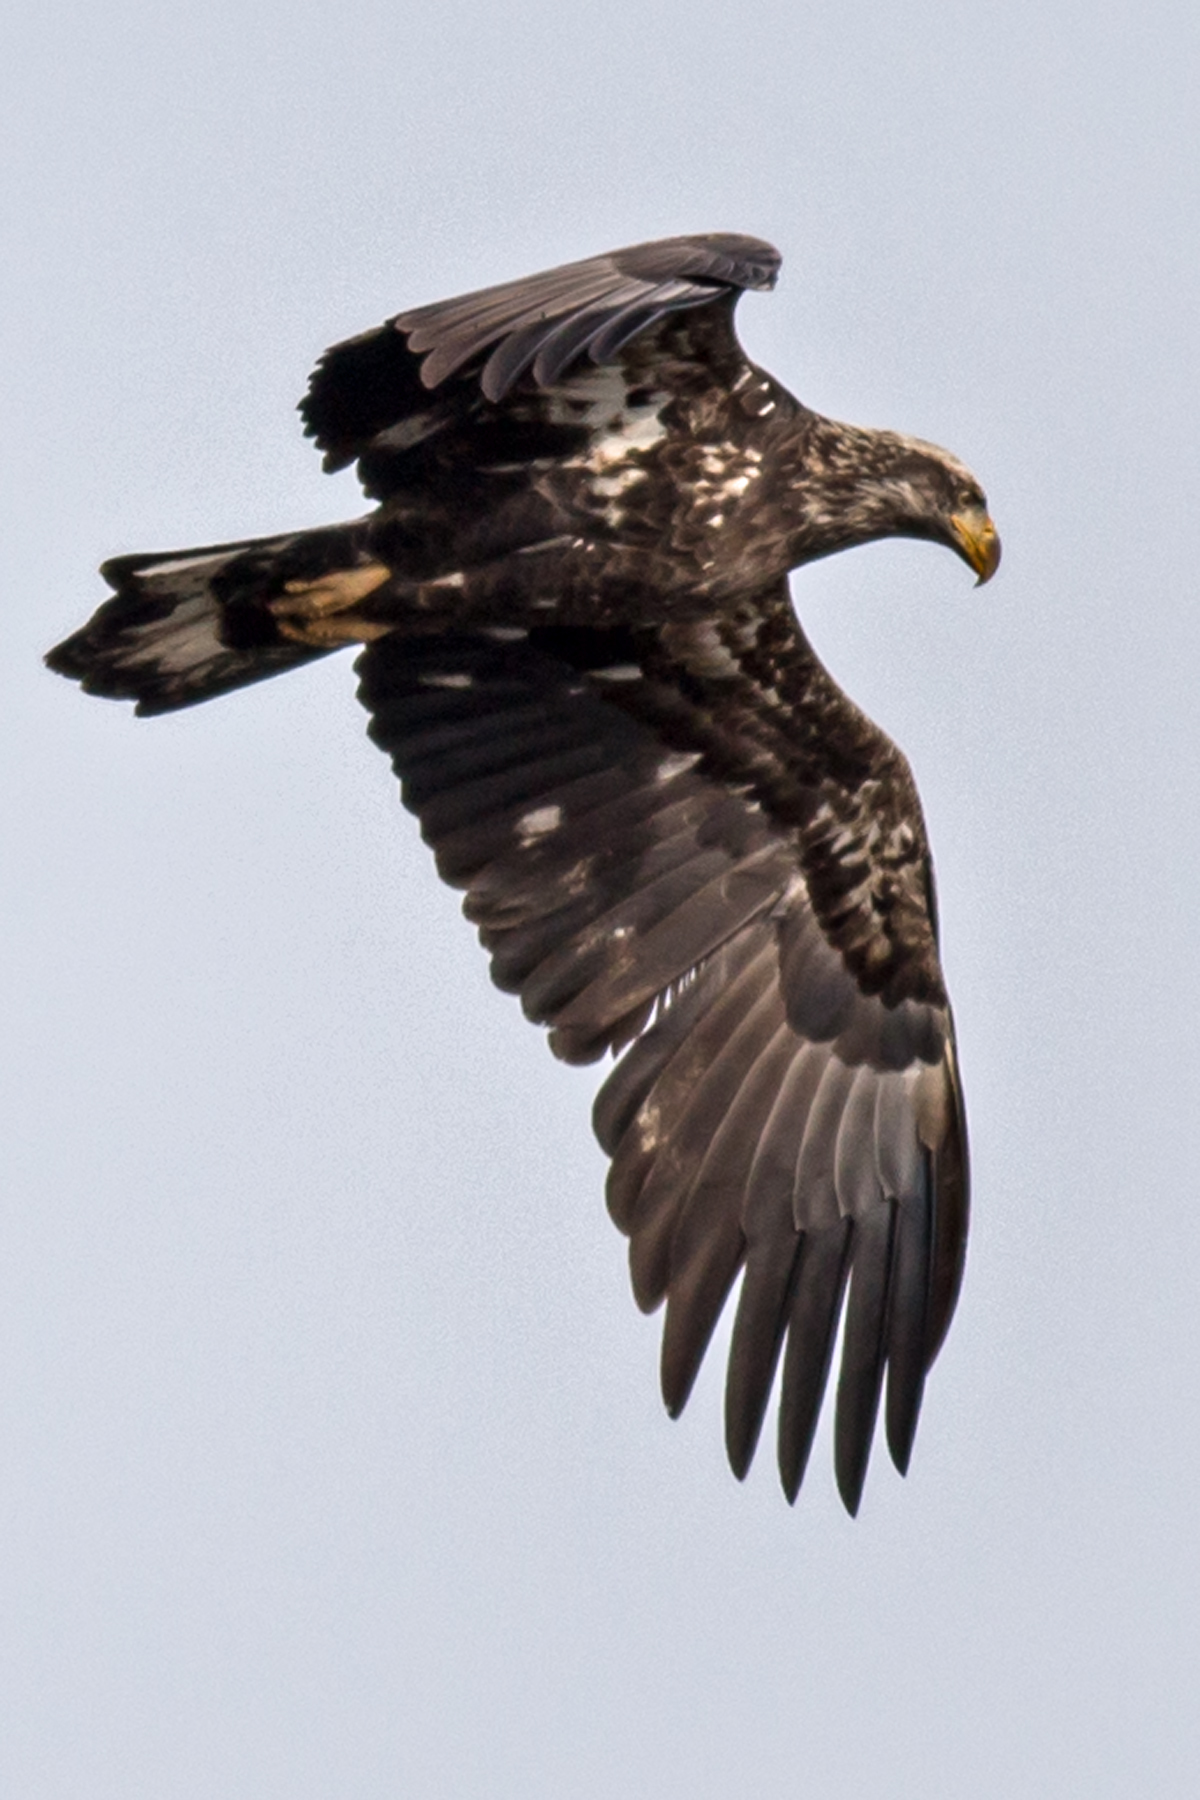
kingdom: Animalia
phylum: Chordata
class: Aves
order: Accipitriformes
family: Accipitridae
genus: Haliaeetus
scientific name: Haliaeetus leucocephalus
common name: Bald eagle
